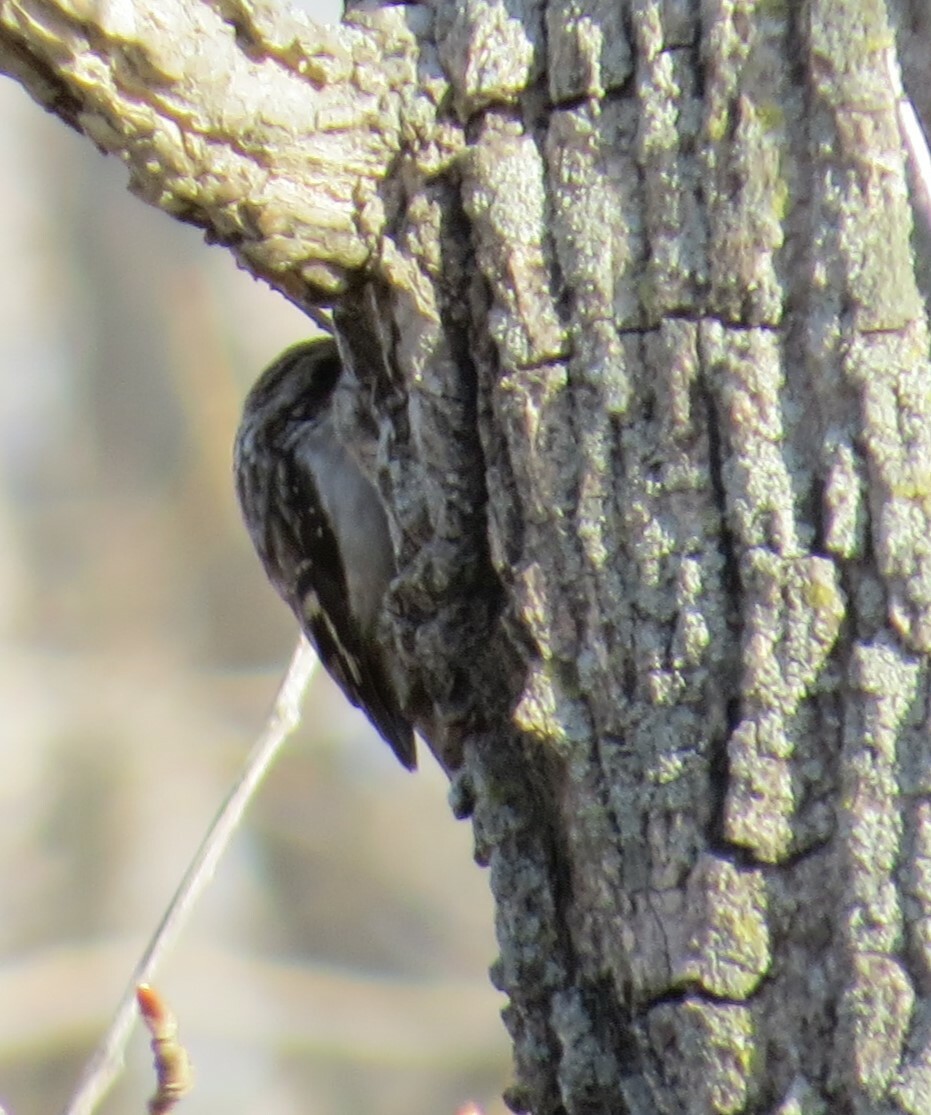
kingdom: Animalia
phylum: Chordata
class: Aves
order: Passeriformes
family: Certhiidae
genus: Certhia
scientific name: Certhia americana
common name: Brown creeper
